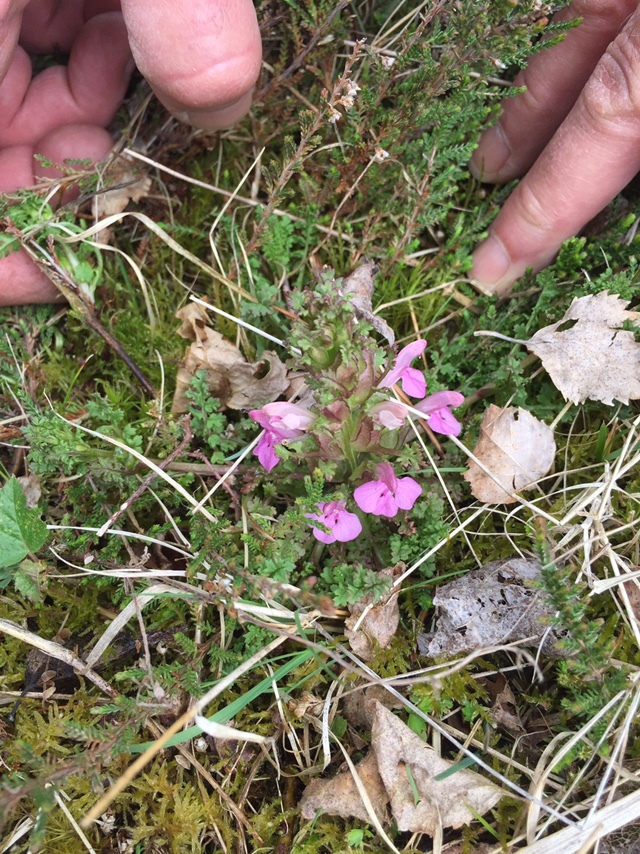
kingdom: Plantae
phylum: Tracheophyta
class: Magnoliopsida
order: Lamiales
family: Orobanchaceae
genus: Pedicularis
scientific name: Pedicularis sylvatica
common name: Lousewort
